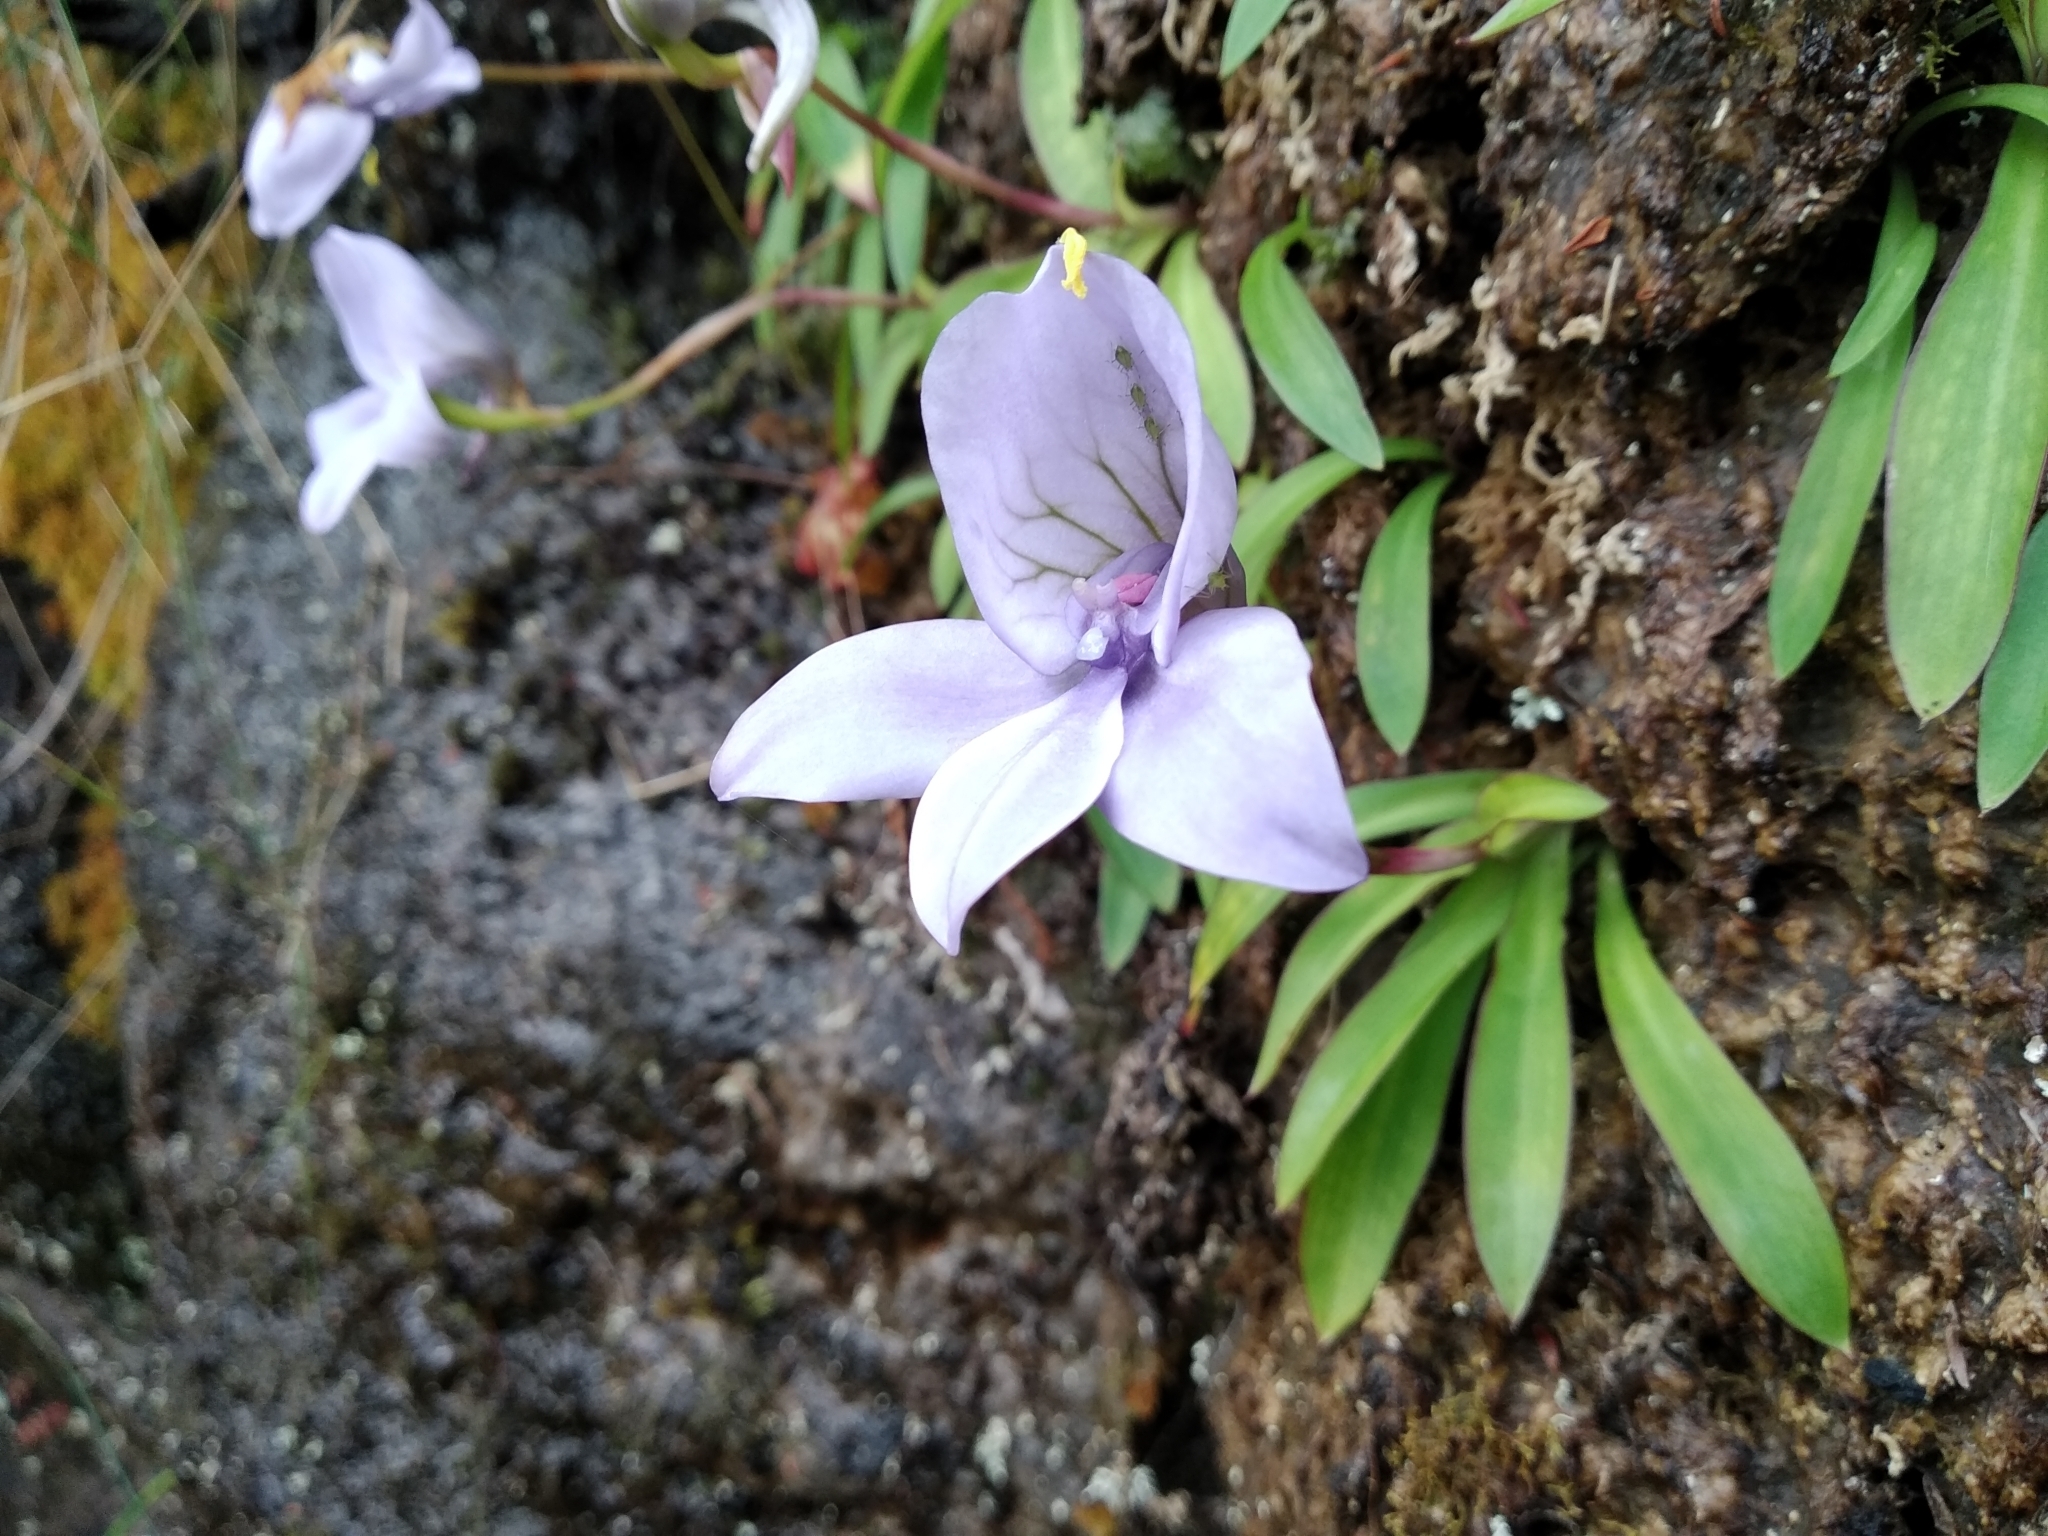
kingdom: Plantae
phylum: Tracheophyta
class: Liliopsida
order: Asparagales
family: Orchidaceae
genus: Disa
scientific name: Disa longicornu
